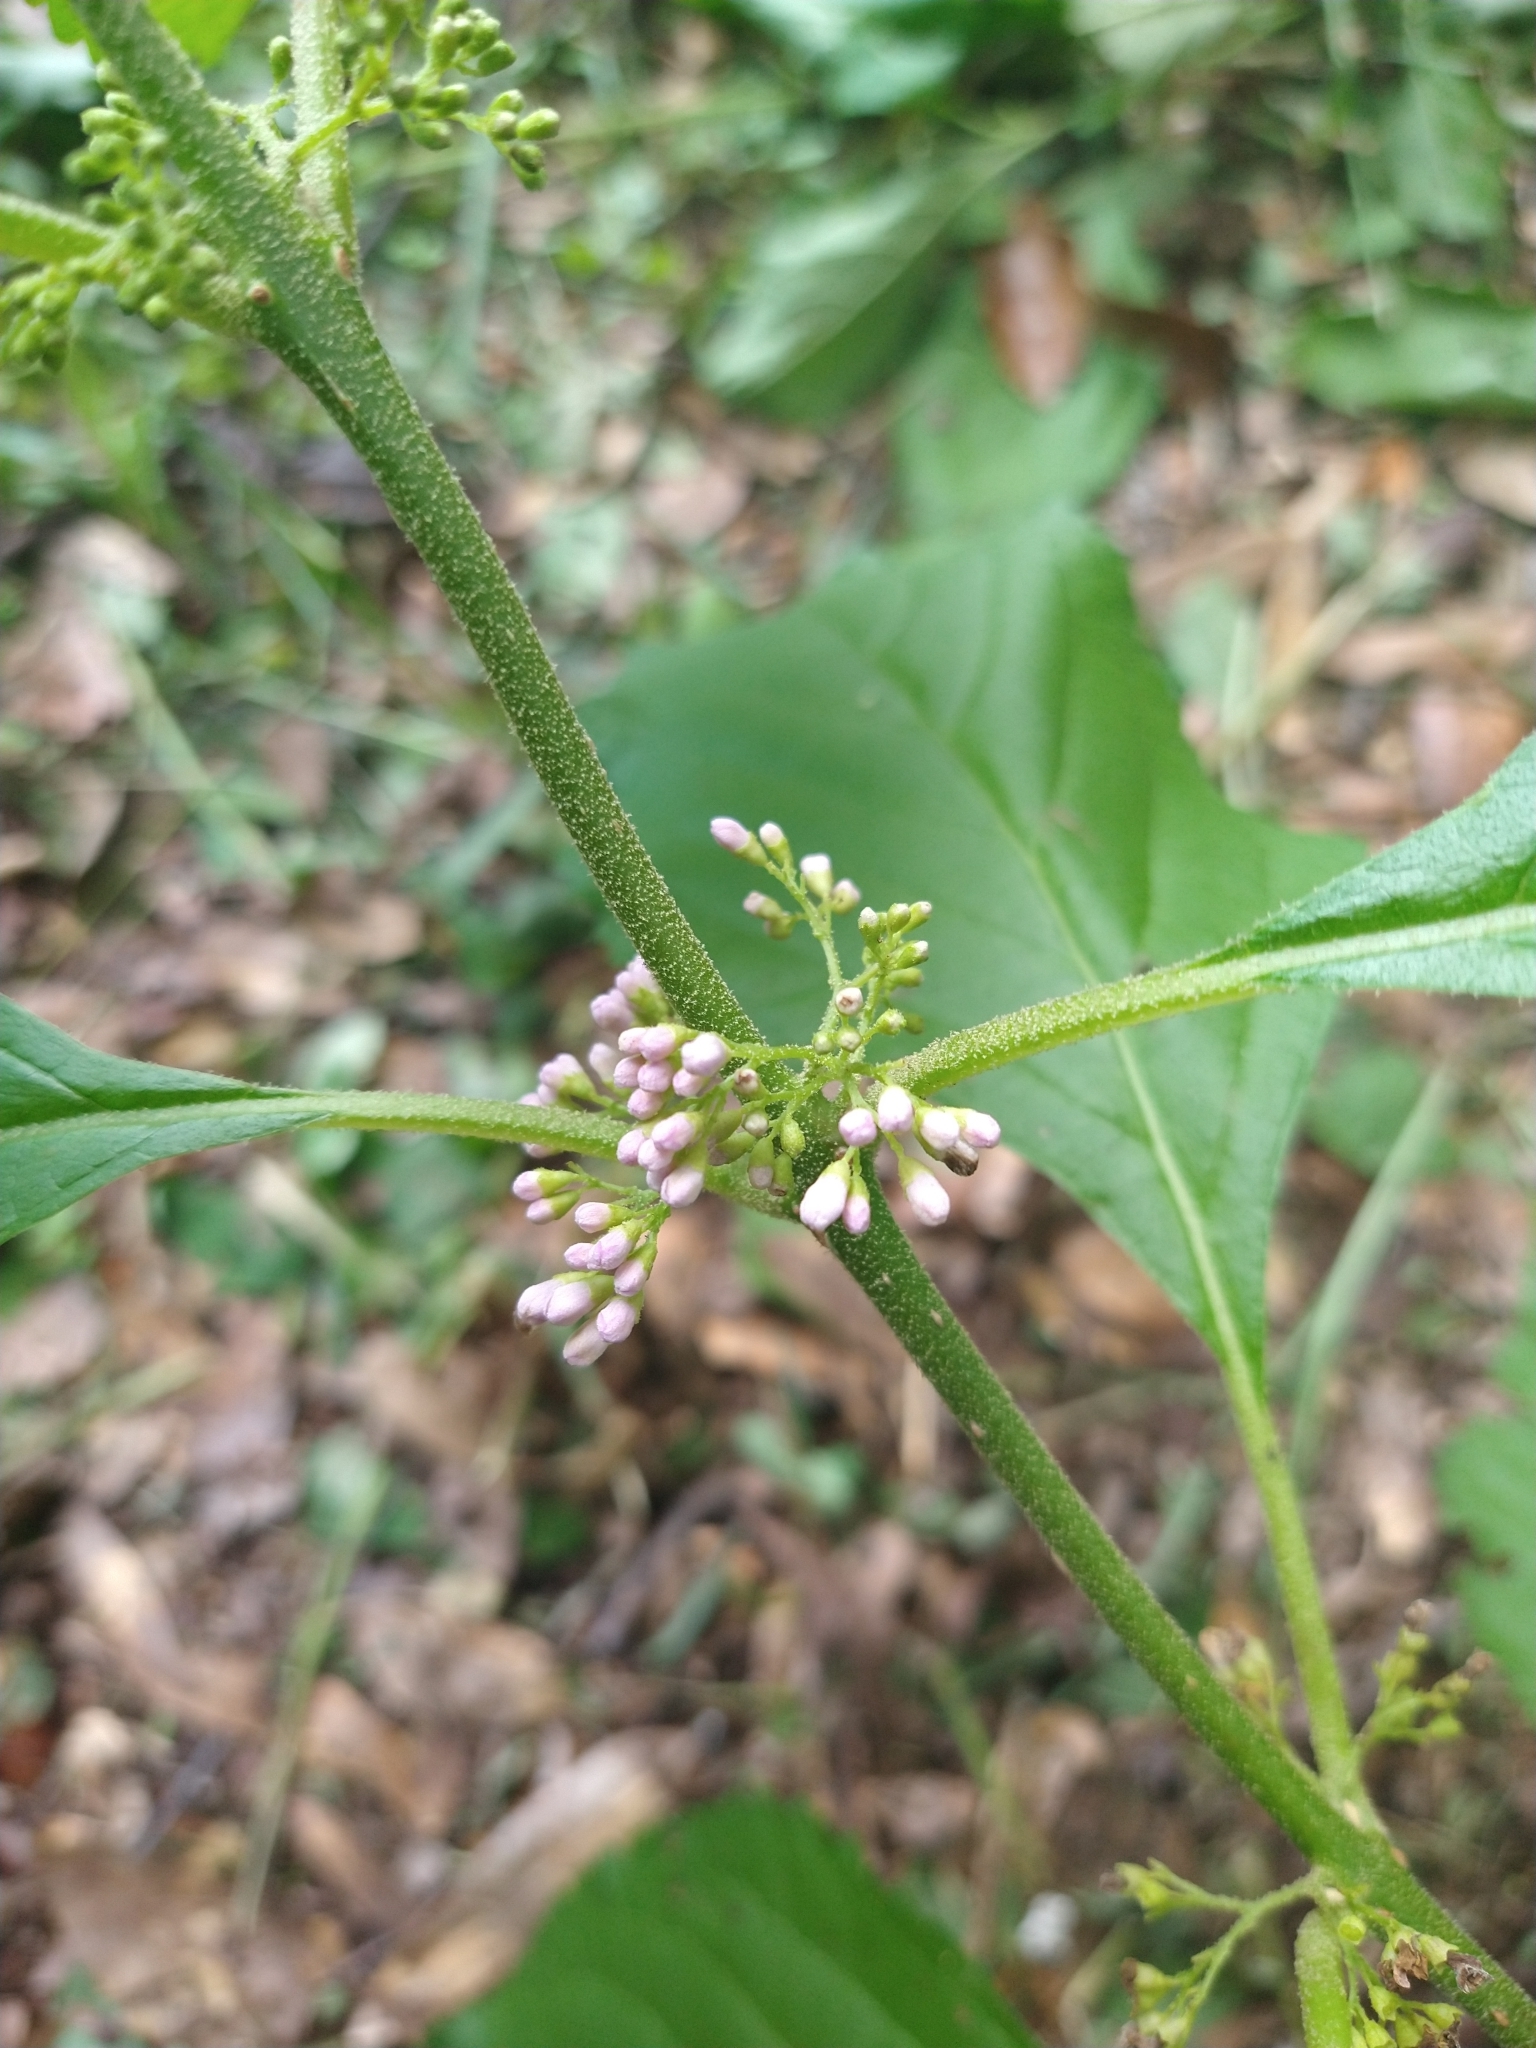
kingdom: Plantae
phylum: Tracheophyta
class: Magnoliopsida
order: Lamiales
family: Lamiaceae
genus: Callicarpa
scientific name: Callicarpa americana
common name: American beautyberry
